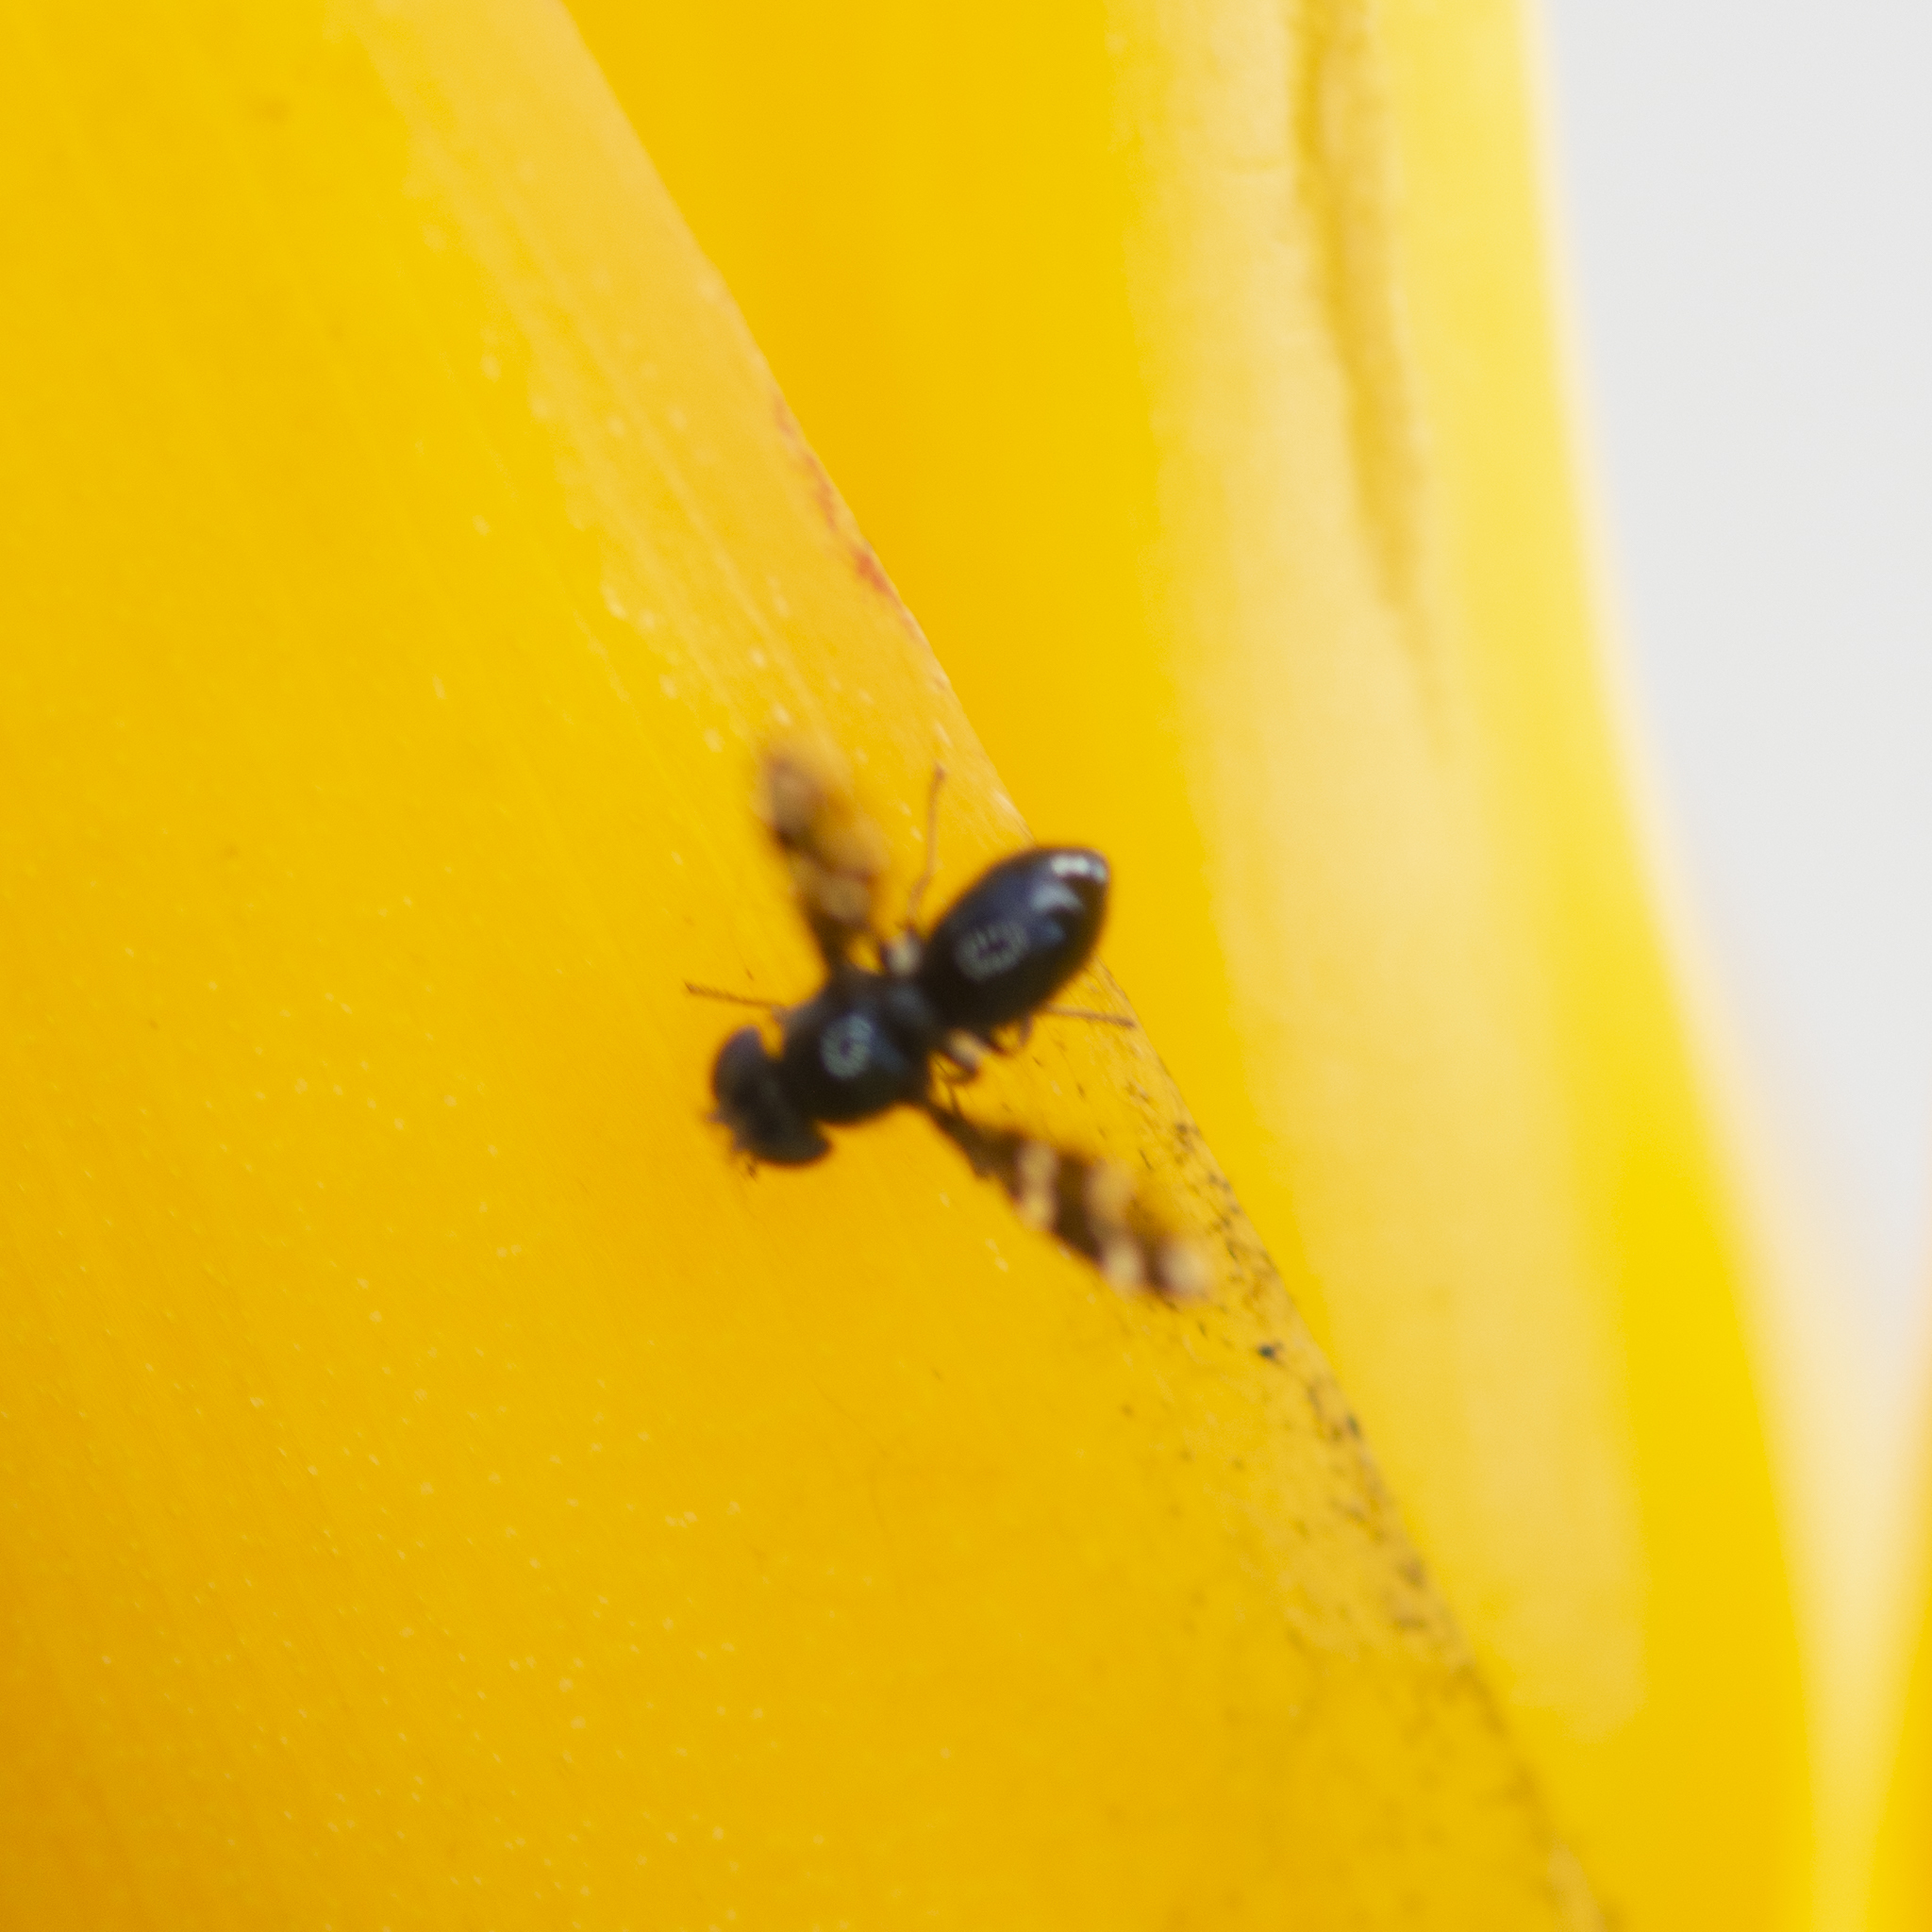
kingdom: Animalia
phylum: Arthropoda
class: Insecta
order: Diptera
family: Ephydridae
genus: Trypetomima
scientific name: Trypetomima completa
